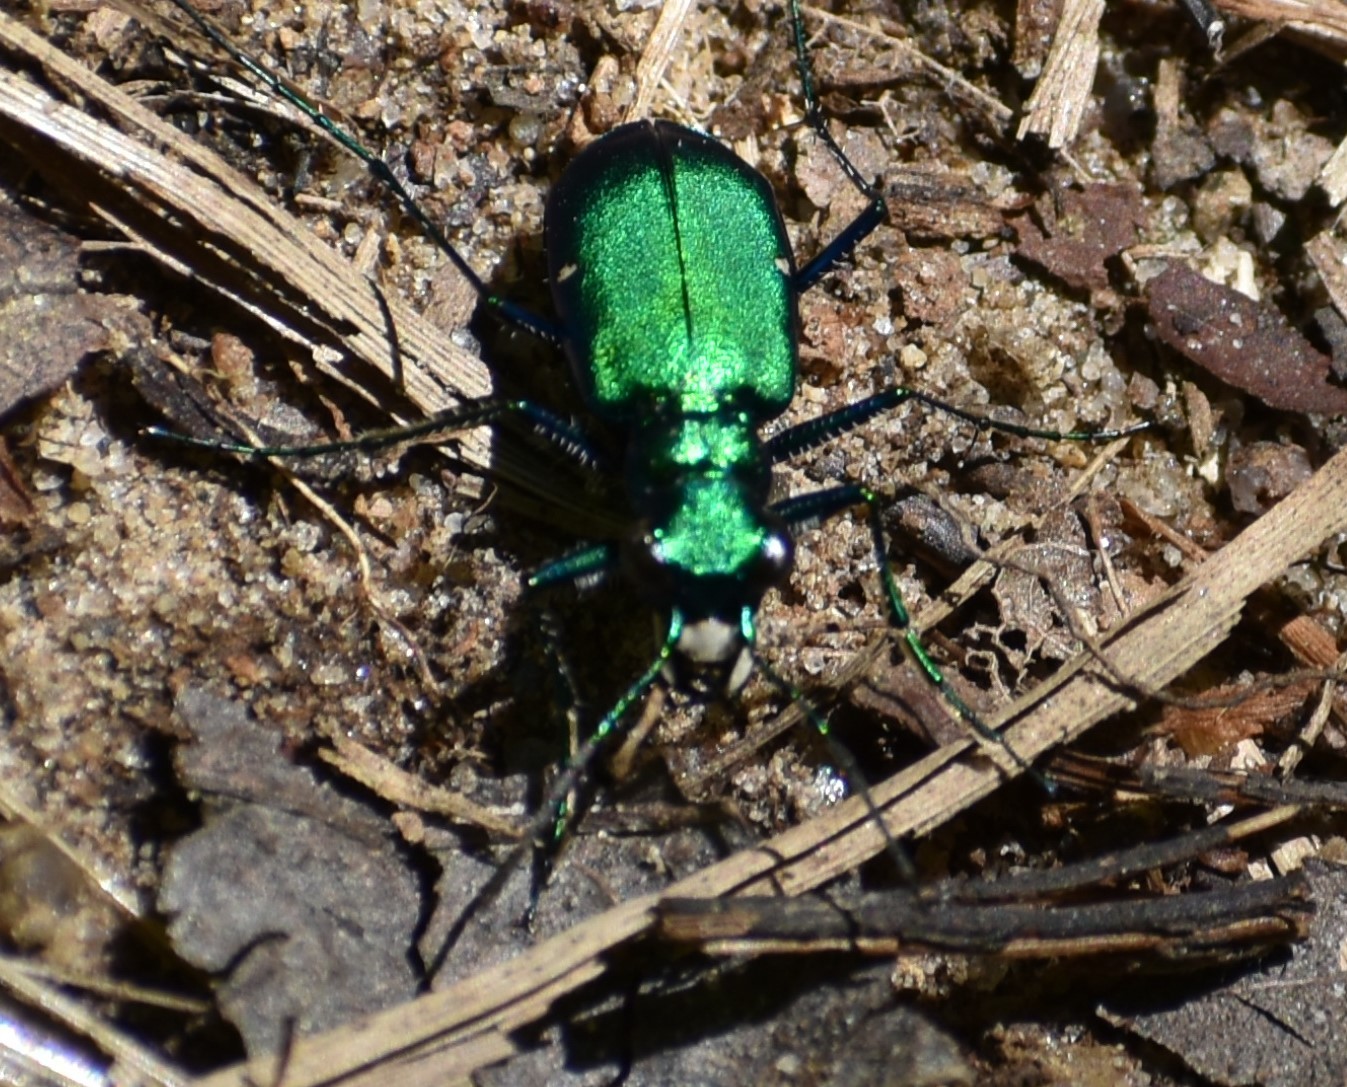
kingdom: Animalia
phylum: Arthropoda
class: Insecta
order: Coleoptera
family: Carabidae
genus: Cicindela
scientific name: Cicindela sexguttata
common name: Six-spotted tiger beetle
